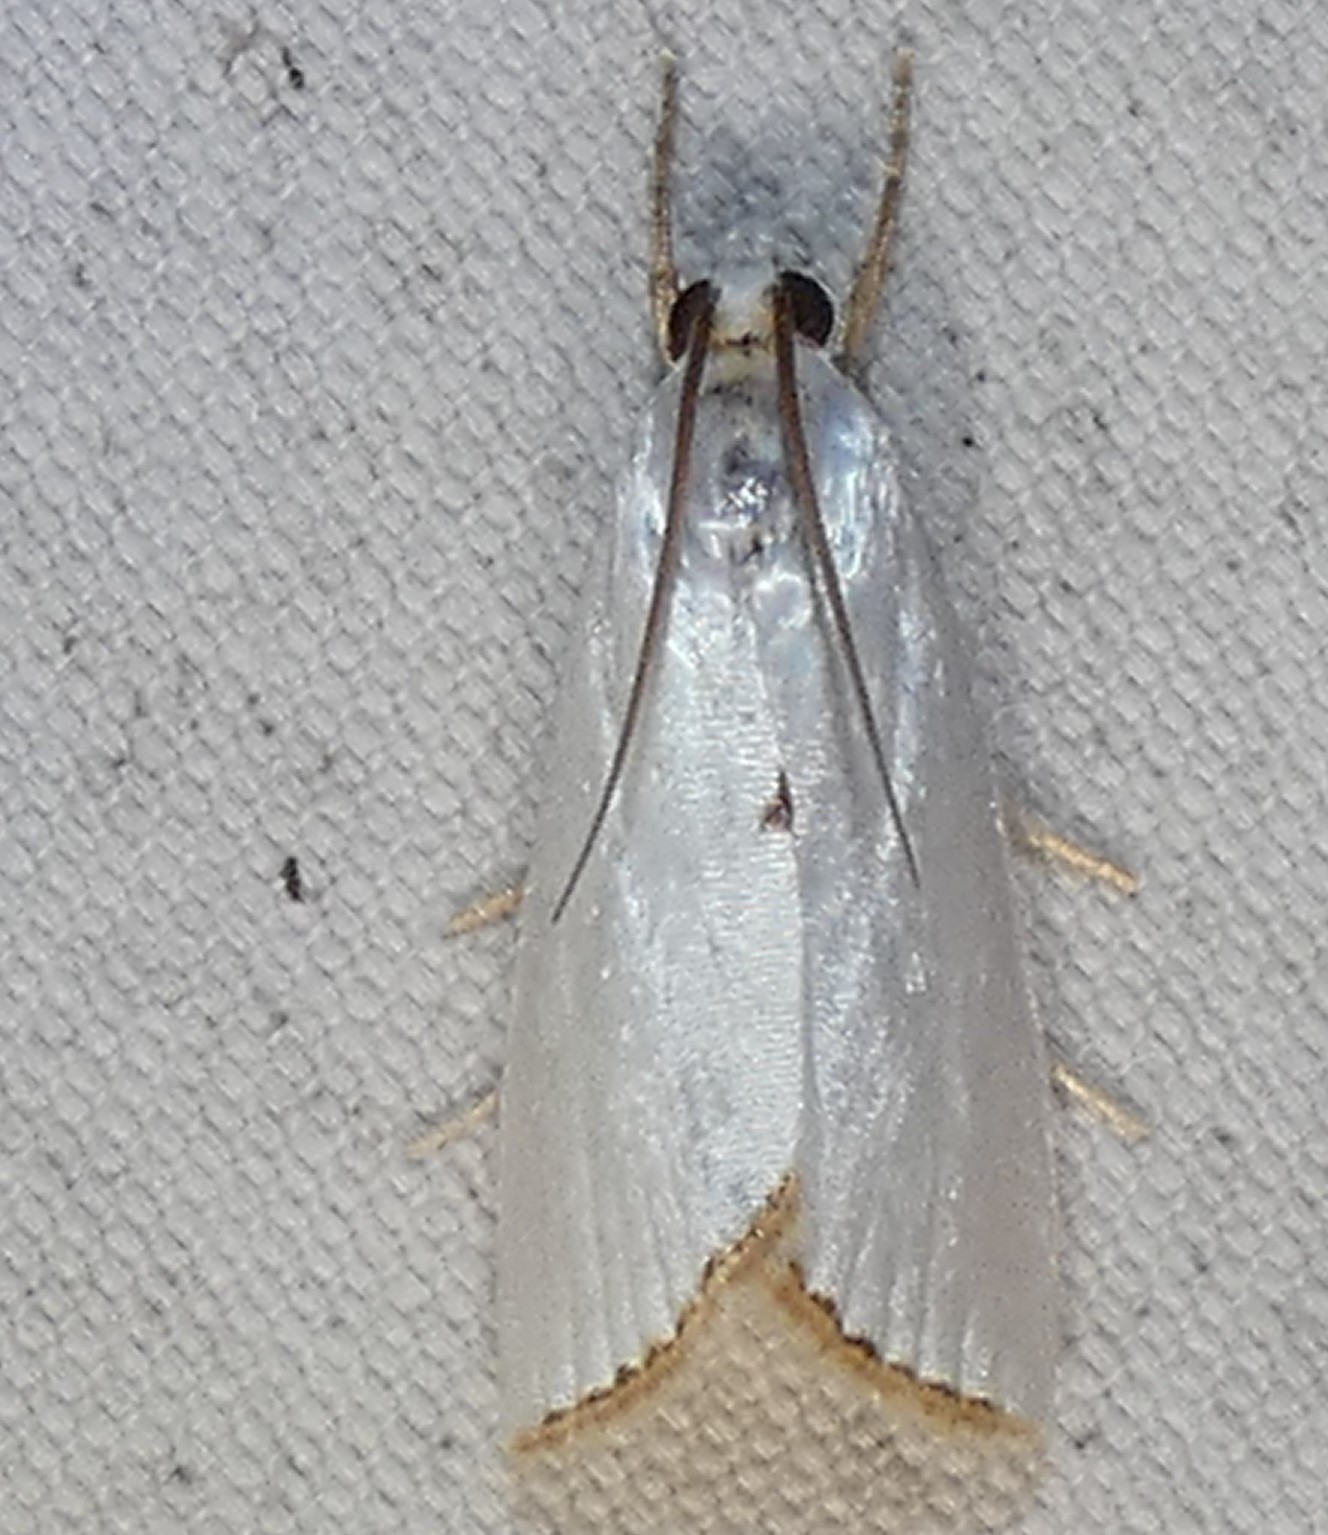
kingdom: Animalia
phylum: Arthropoda
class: Insecta
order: Lepidoptera
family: Crambidae
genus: Argyria
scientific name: Argyria nivalis
